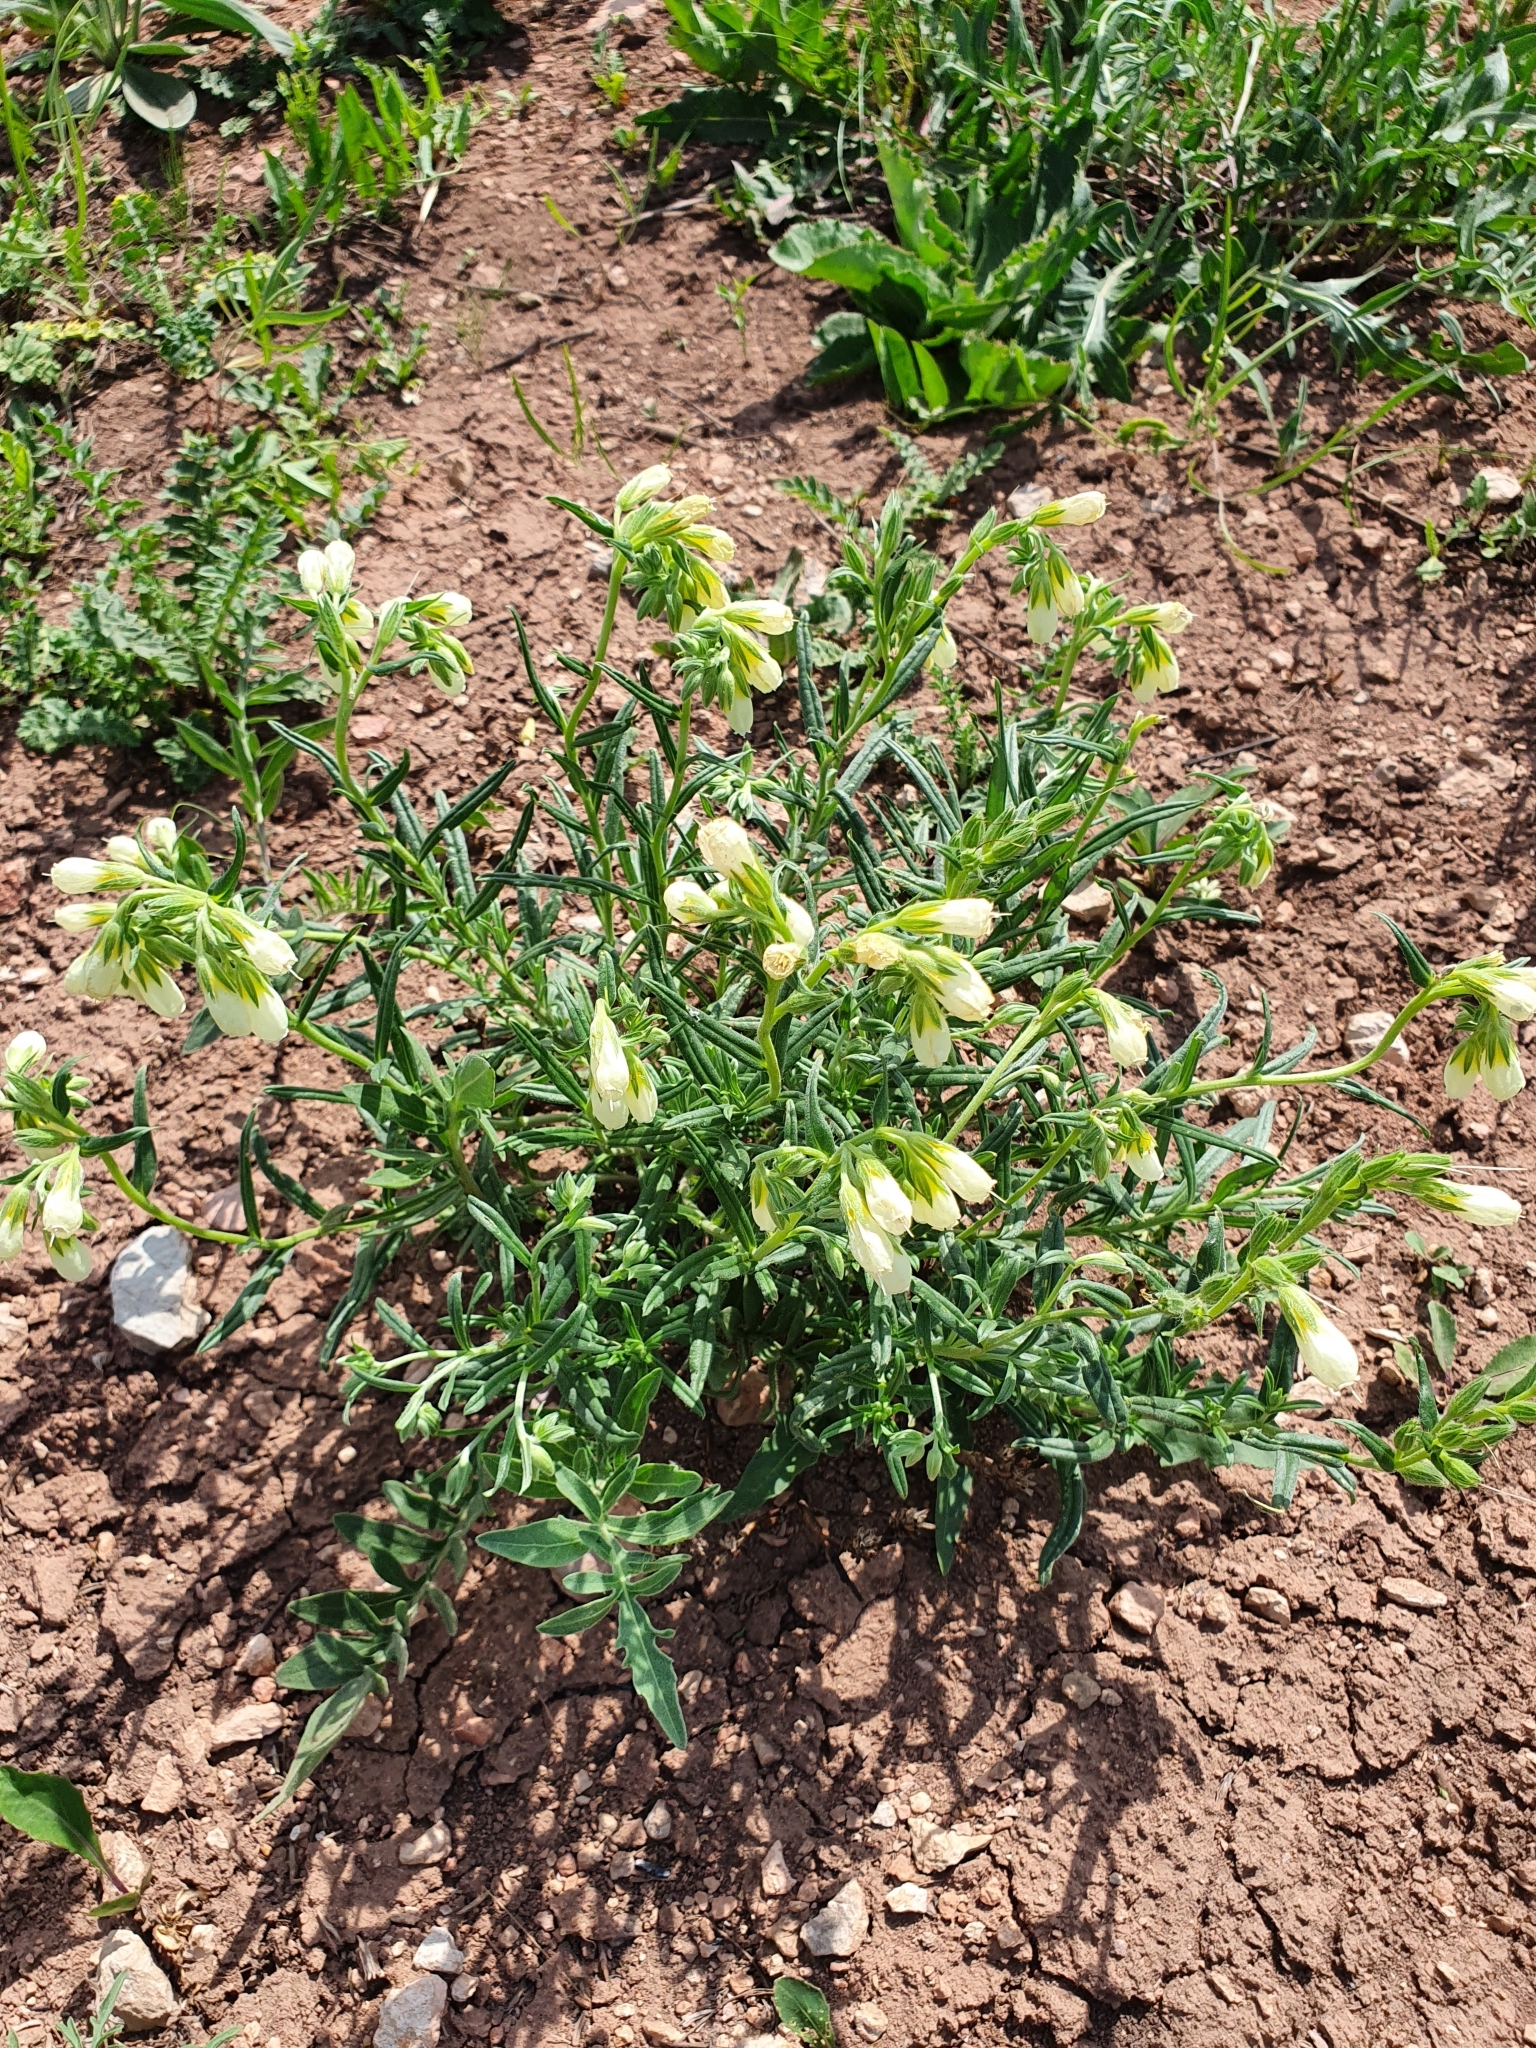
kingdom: Plantae
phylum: Tracheophyta
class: Magnoliopsida
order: Boraginales
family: Boraginaceae
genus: Onosma
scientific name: Onosma simplicissima
